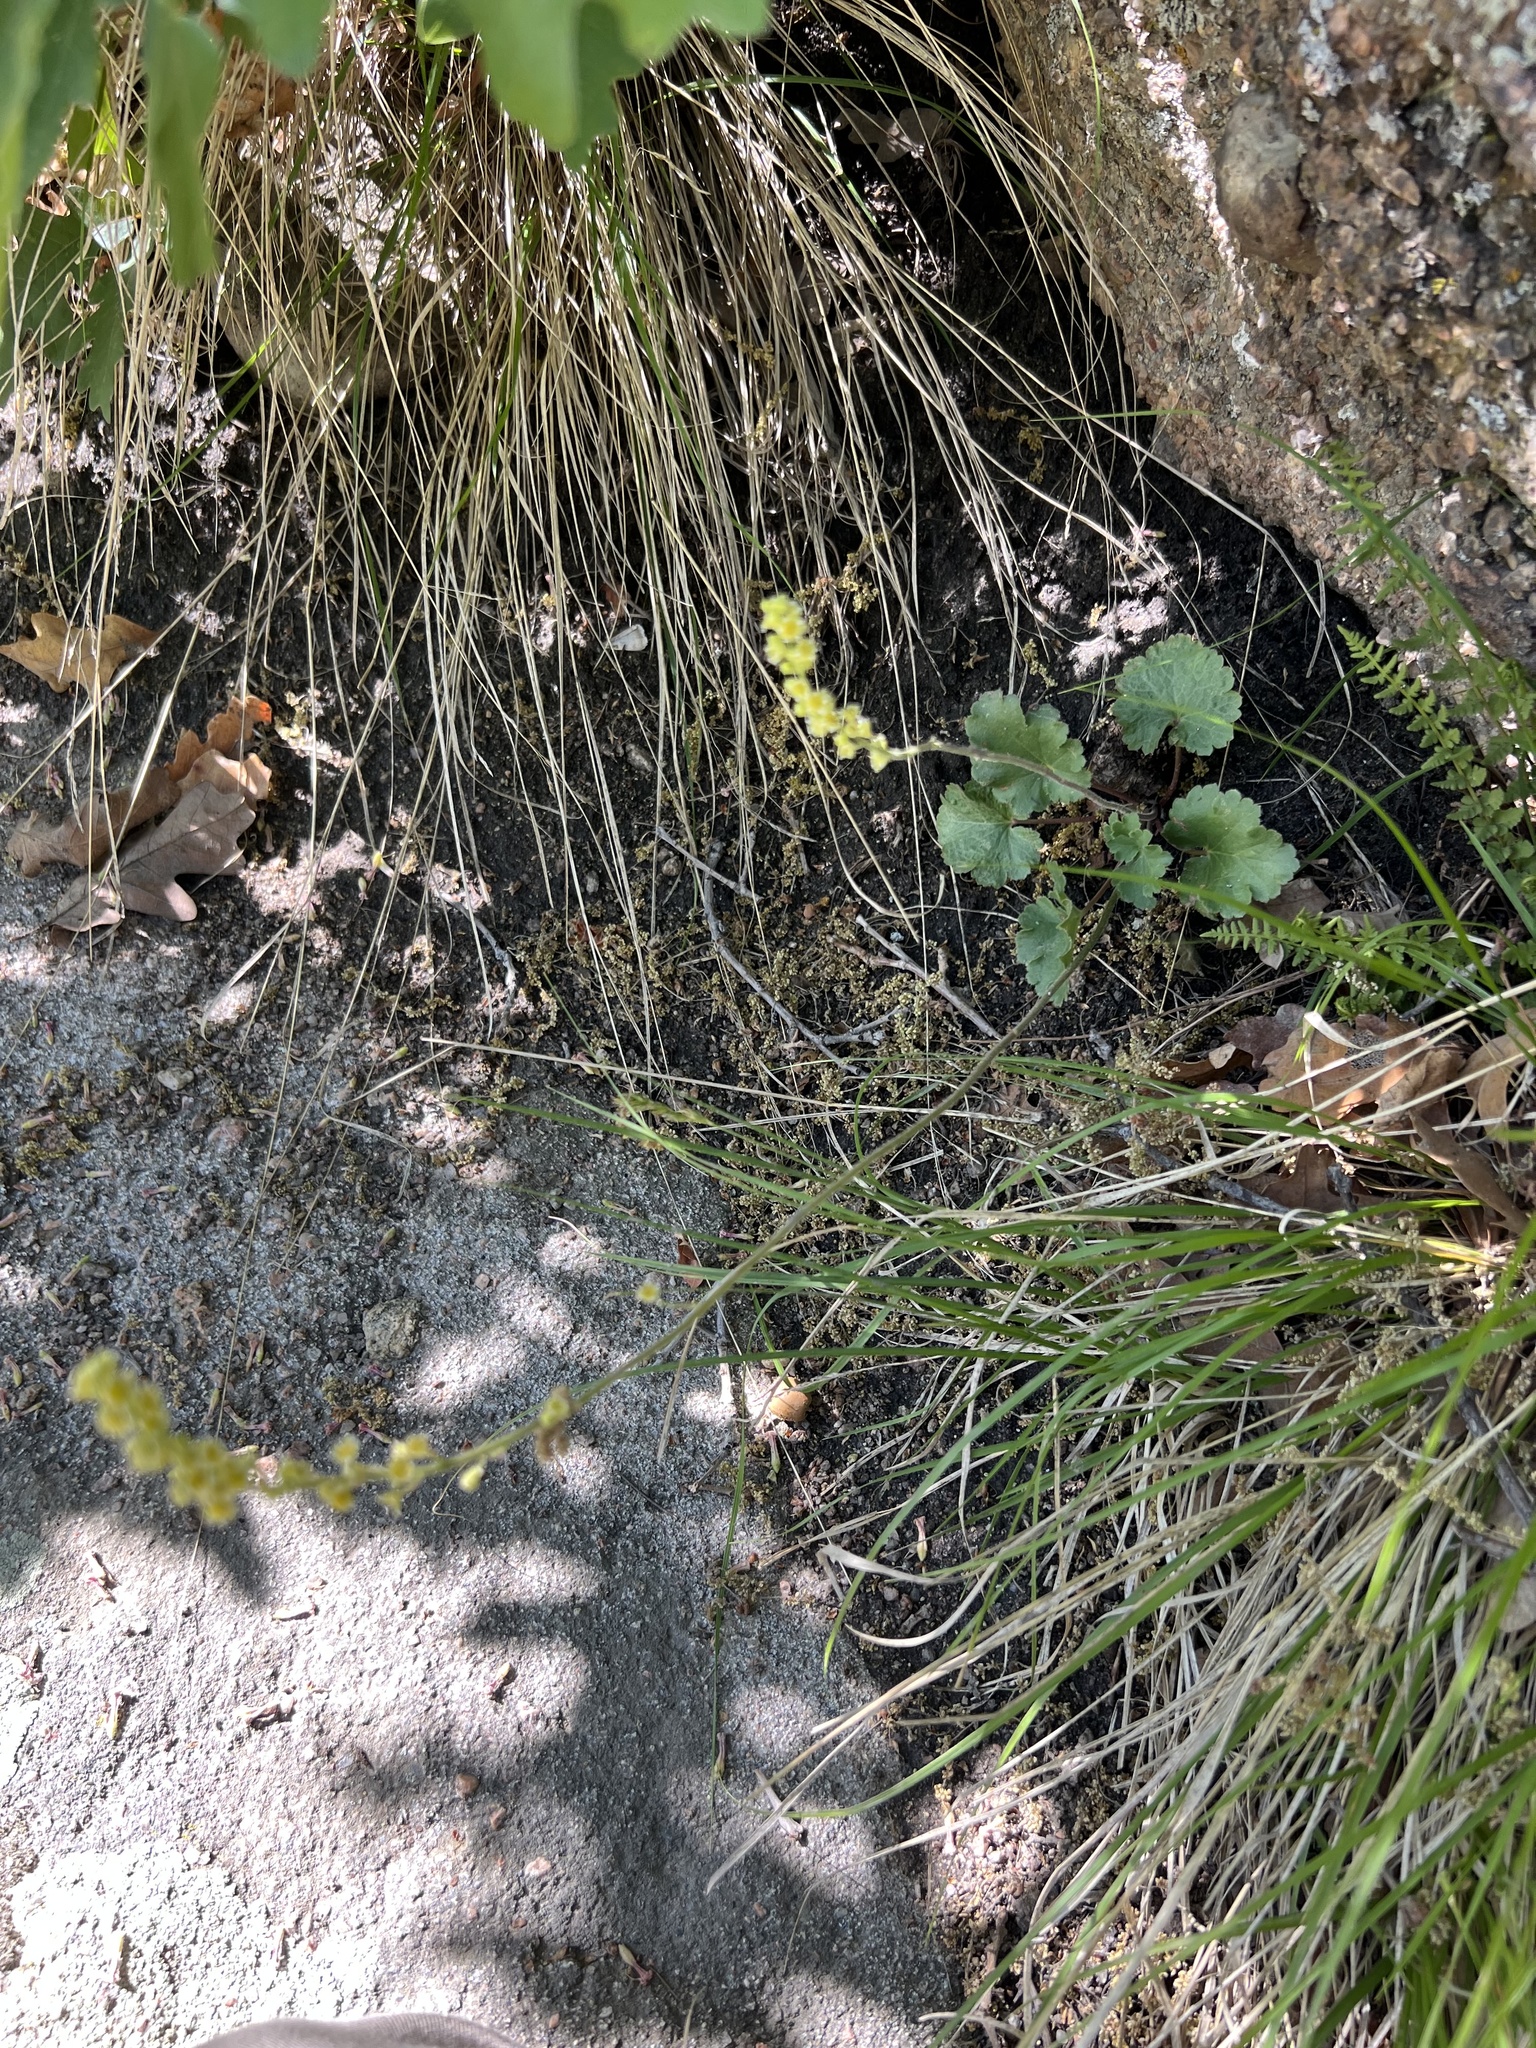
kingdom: Plantae
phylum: Tracheophyta
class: Magnoliopsida
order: Saxifragales
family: Saxifragaceae
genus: Heuchera
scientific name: Heuchera parvifolia
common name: Common alumroot
